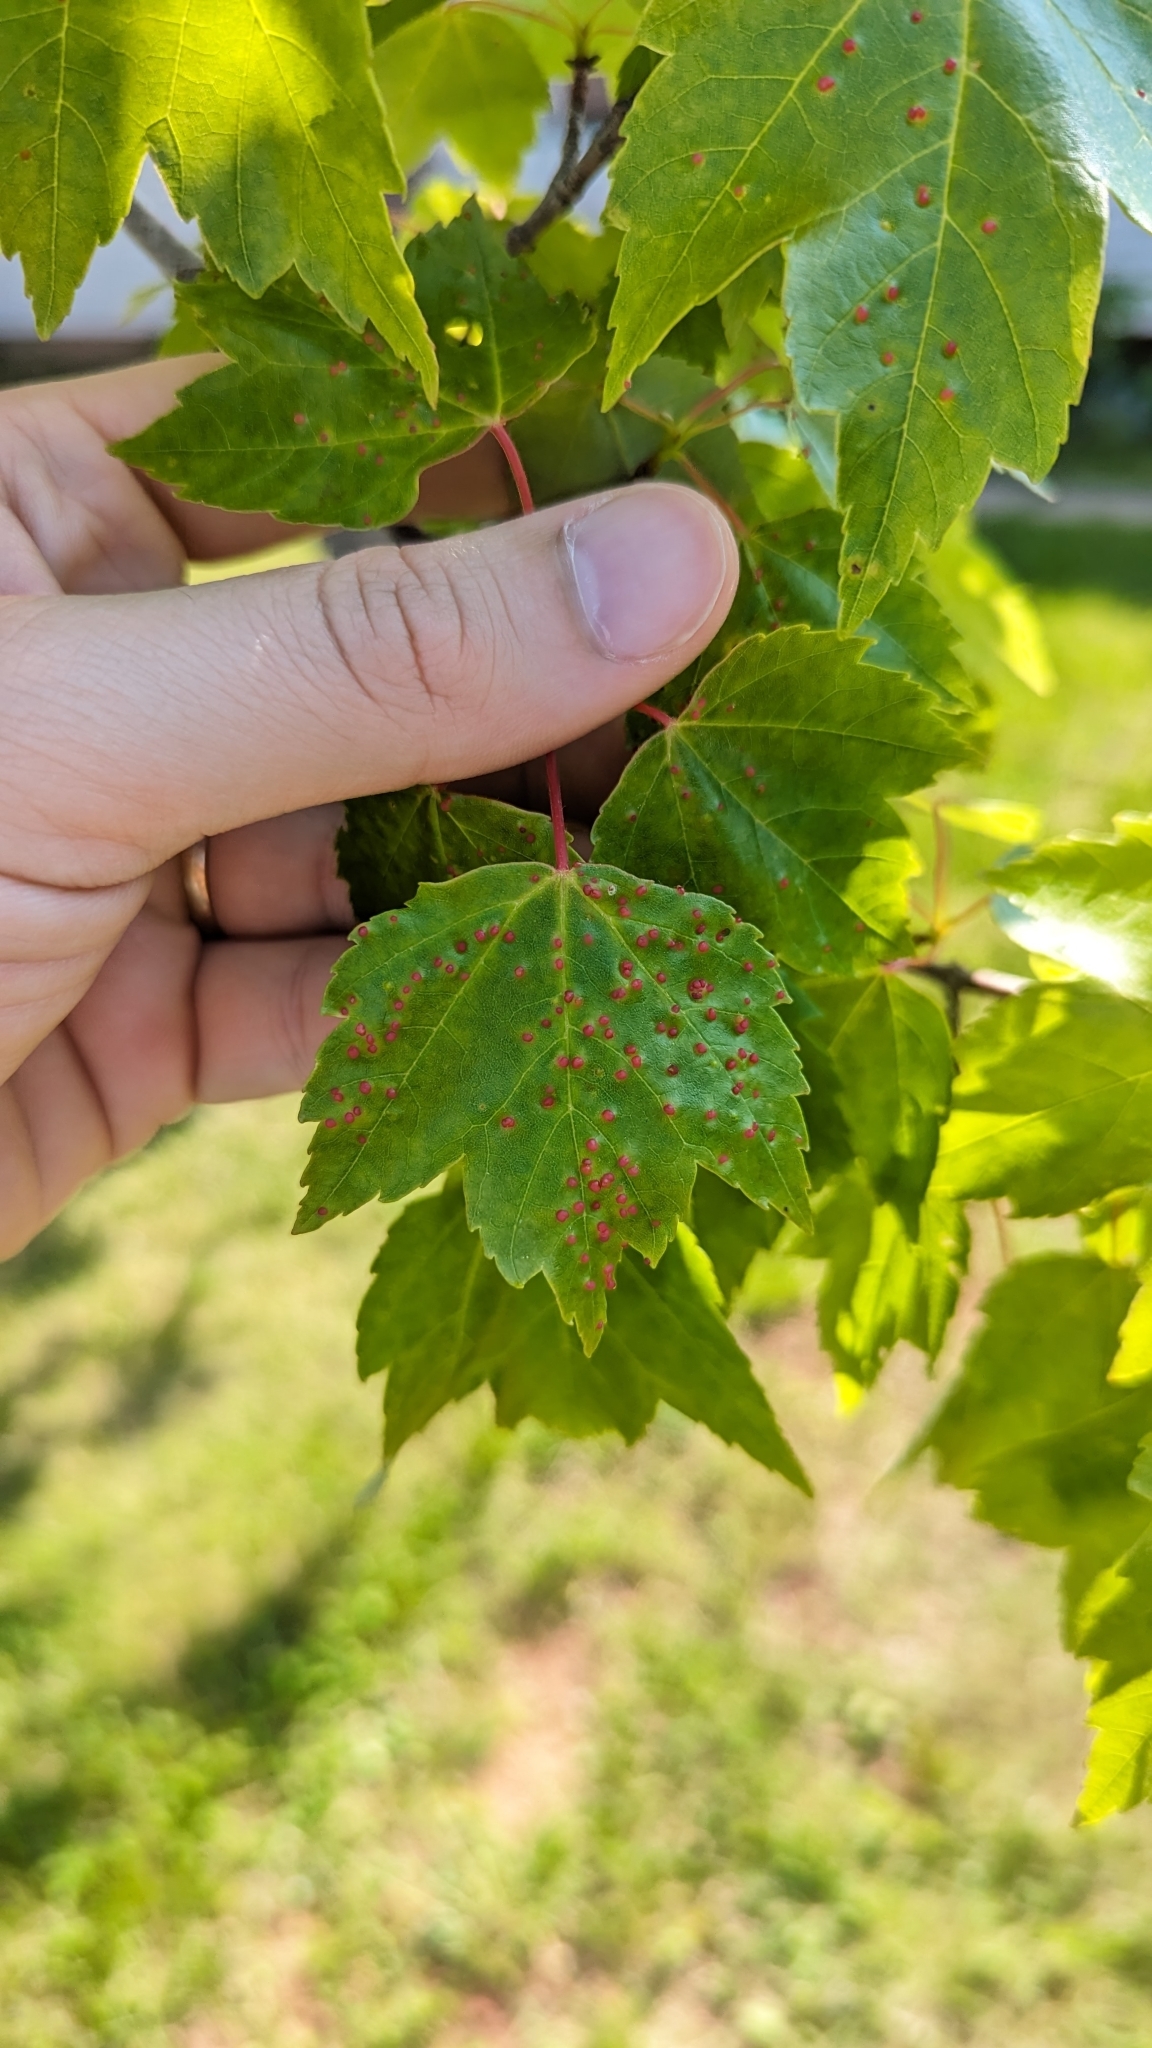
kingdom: Animalia
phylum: Arthropoda
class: Arachnida
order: Trombidiformes
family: Eriophyidae
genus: Vasates
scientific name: Vasates quadripedes
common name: Maple bladder gall mite
